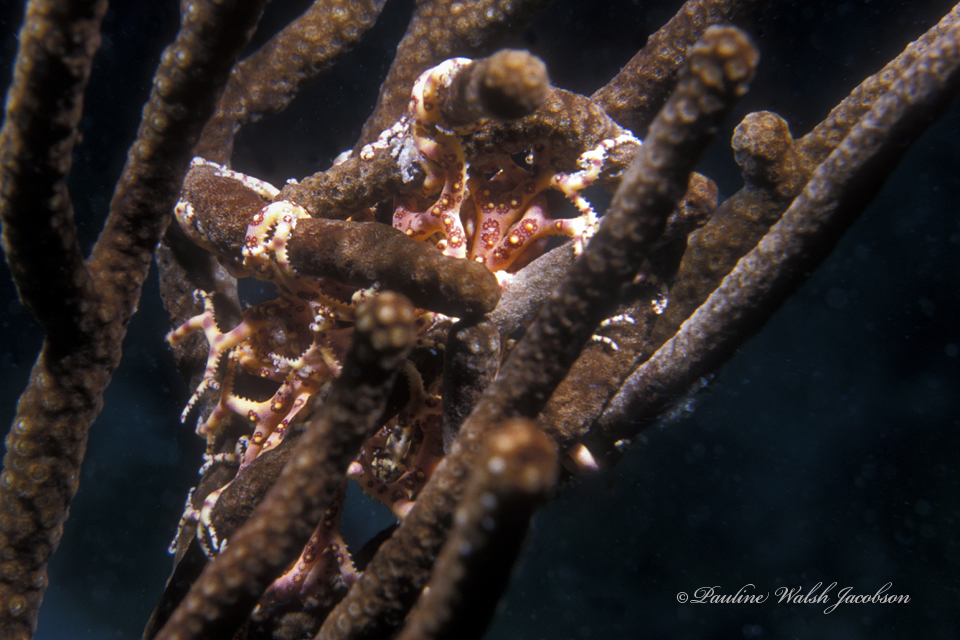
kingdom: Animalia
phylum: Echinodermata
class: Ophiuroidea
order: Euryalida
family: Gorgonocephalidae
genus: Astrophyton
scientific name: Astrophyton muricatum
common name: Basket starfish
